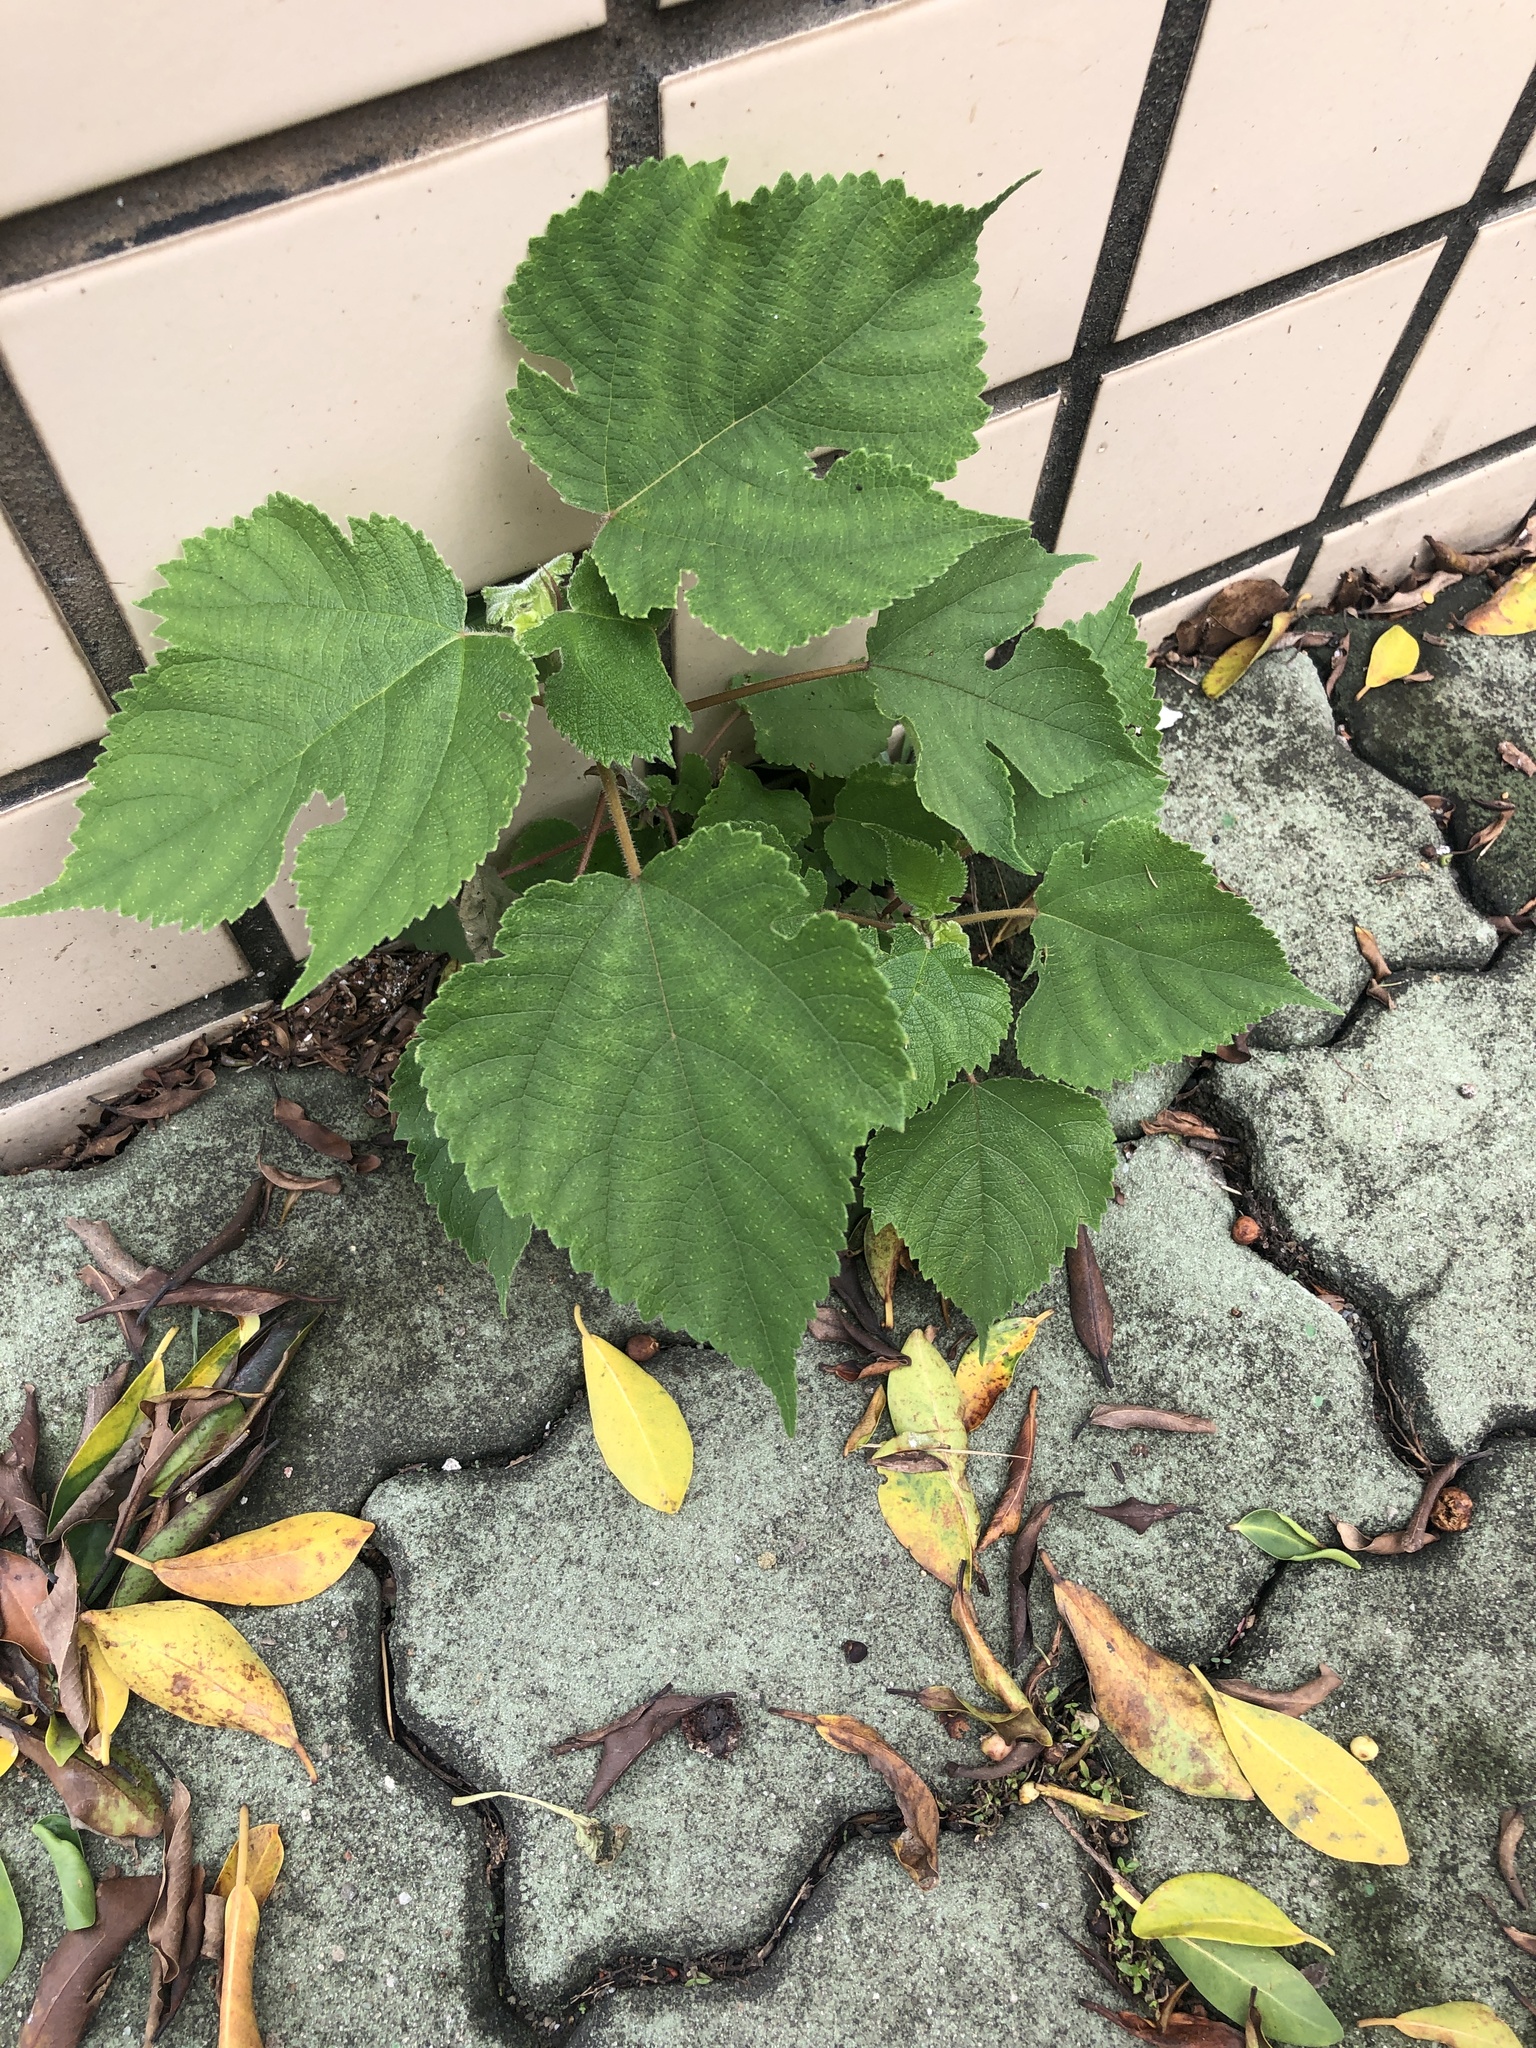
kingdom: Plantae
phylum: Tracheophyta
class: Magnoliopsida
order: Rosales
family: Moraceae
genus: Broussonetia
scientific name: Broussonetia papyrifera
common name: Paper mulberry
